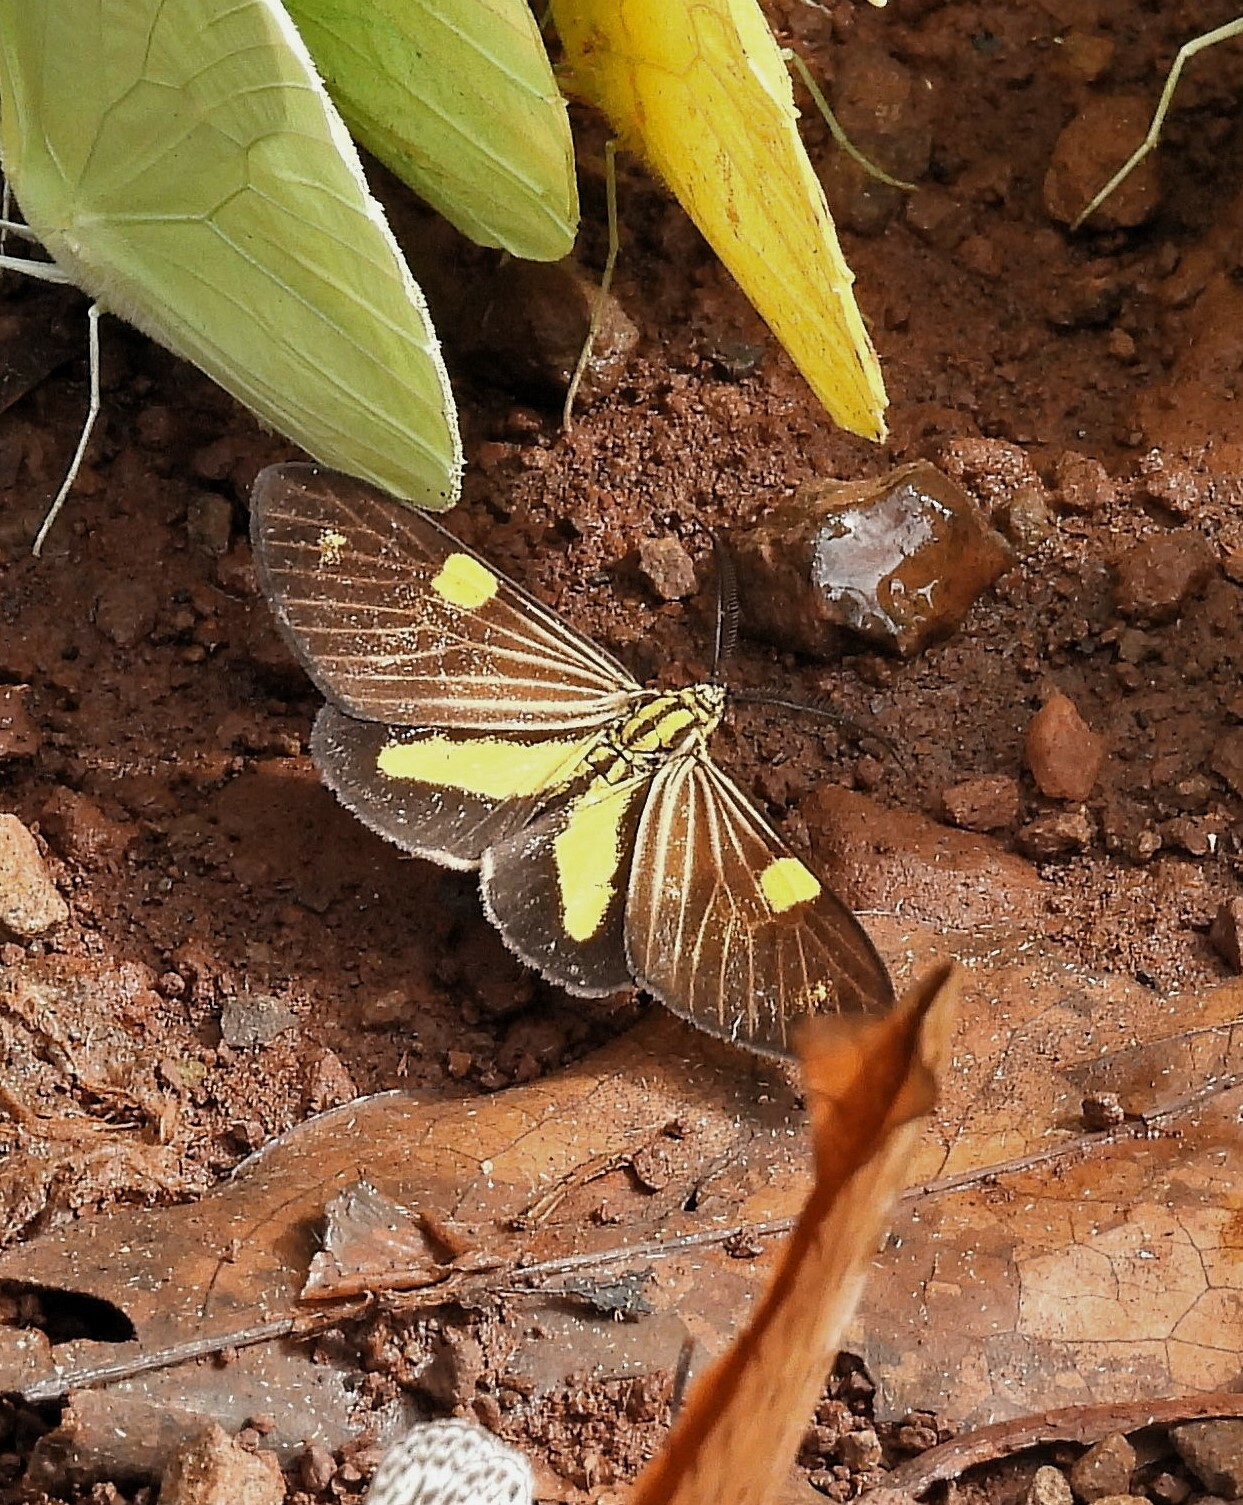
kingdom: Animalia
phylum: Arthropoda
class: Insecta
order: Lepidoptera
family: Notodontidae
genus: Phaeochlaena
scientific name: Phaeochlaena
